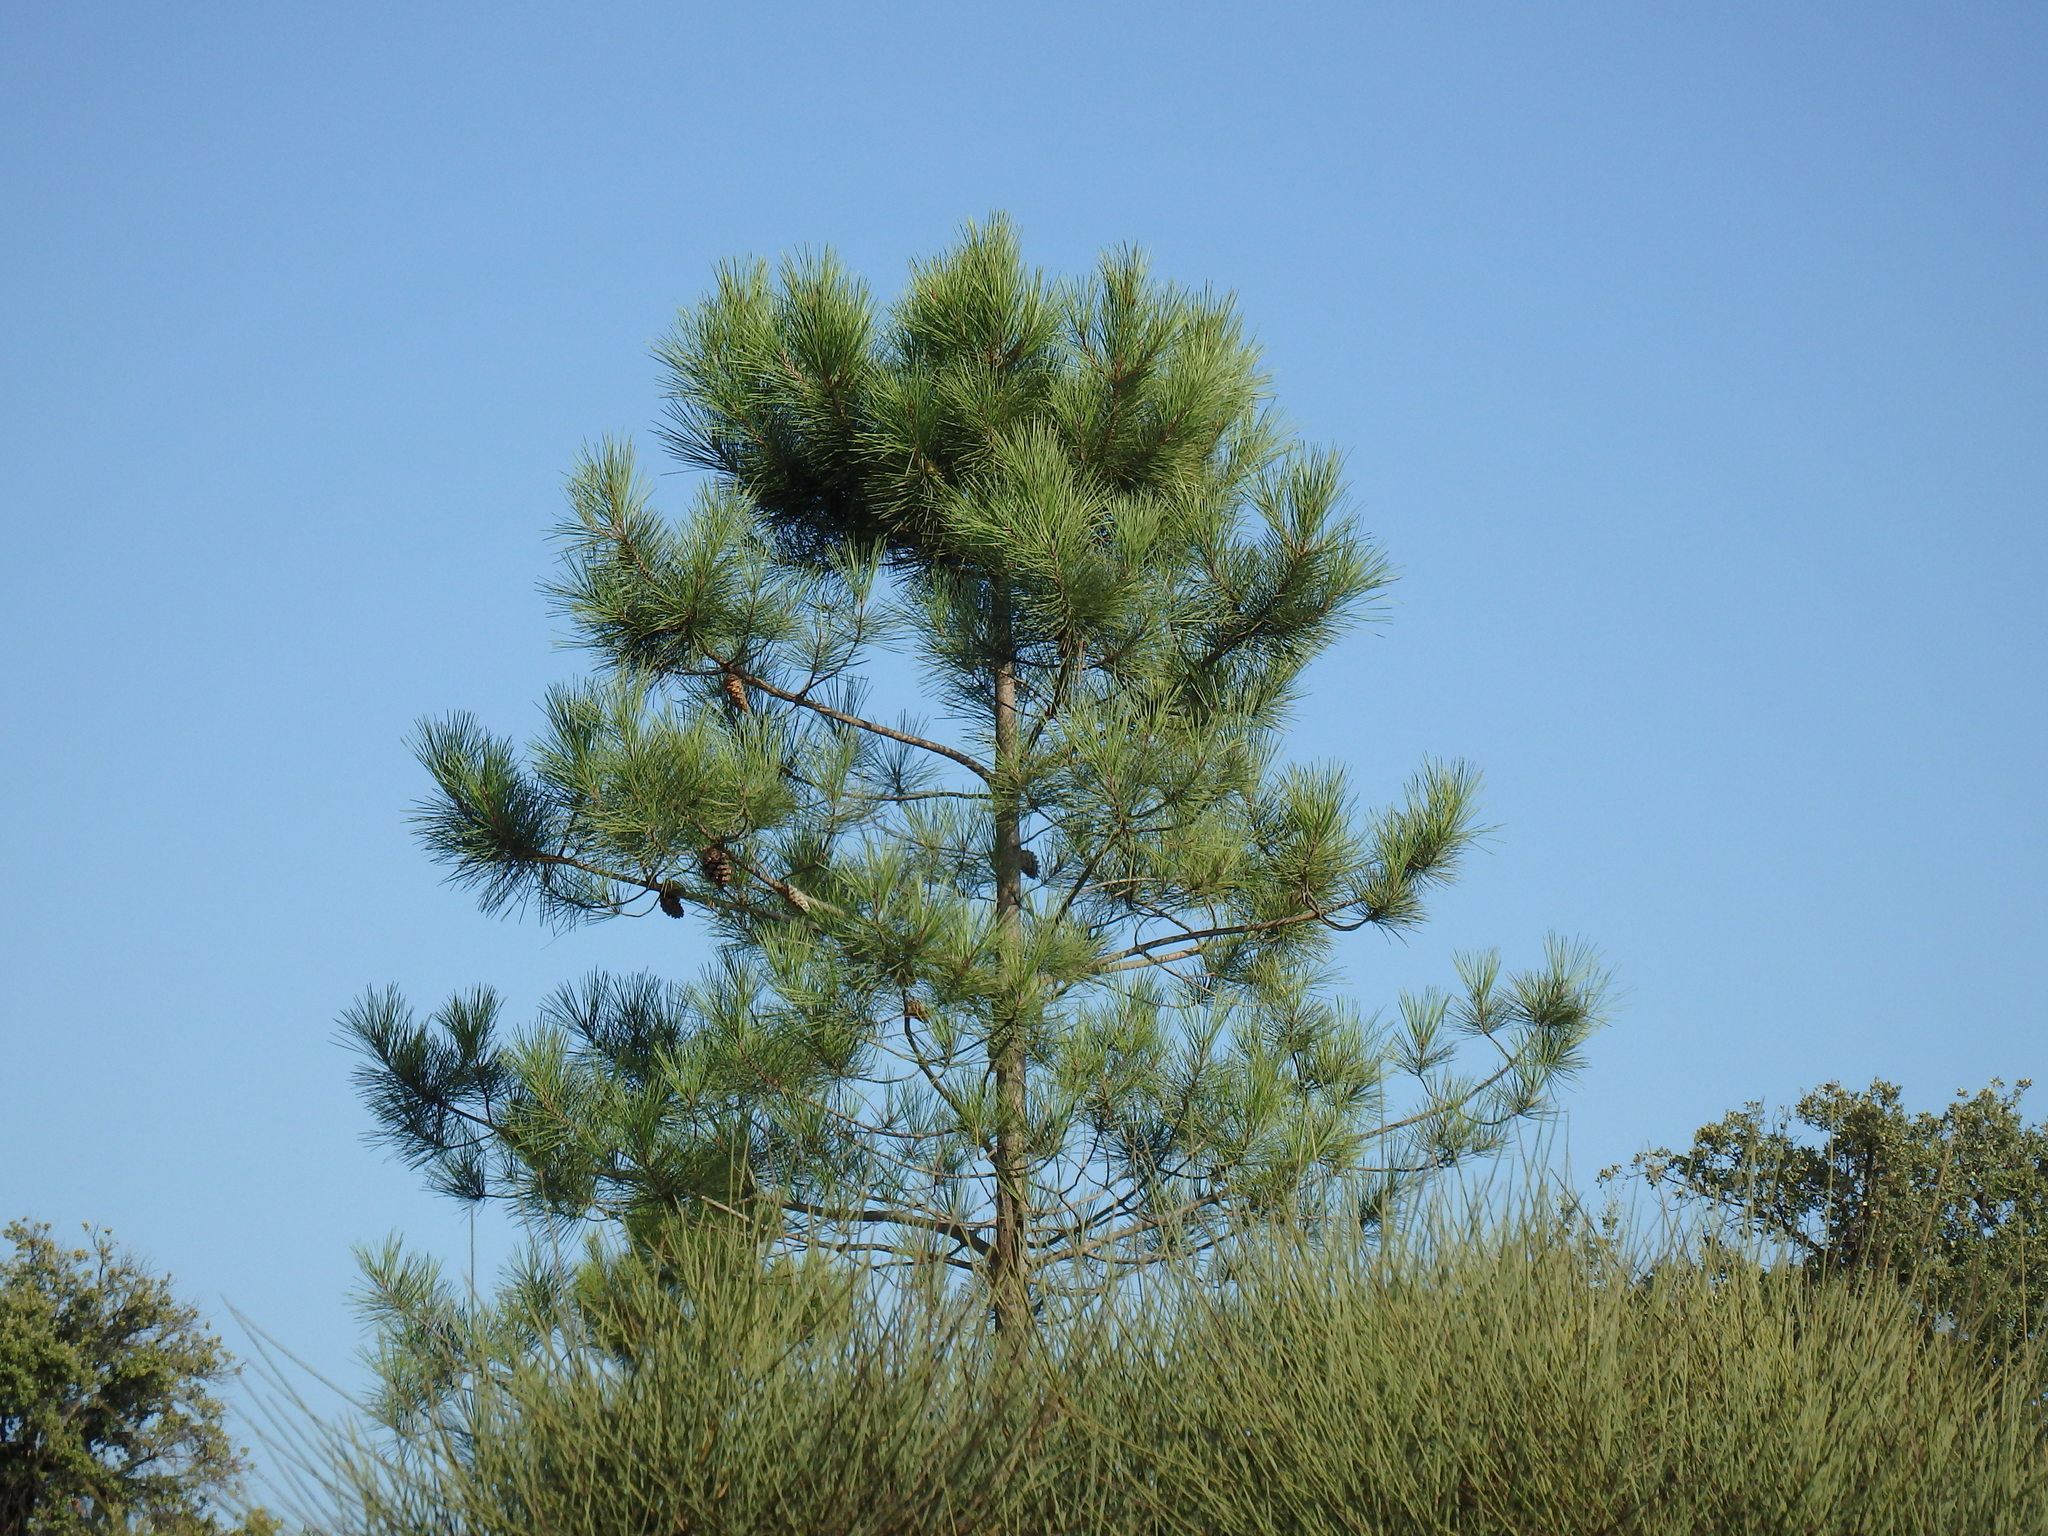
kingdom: Plantae
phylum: Tracheophyta
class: Pinopsida
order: Pinales
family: Pinaceae
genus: Pinus
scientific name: Pinus pinaster
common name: Maritime pine
